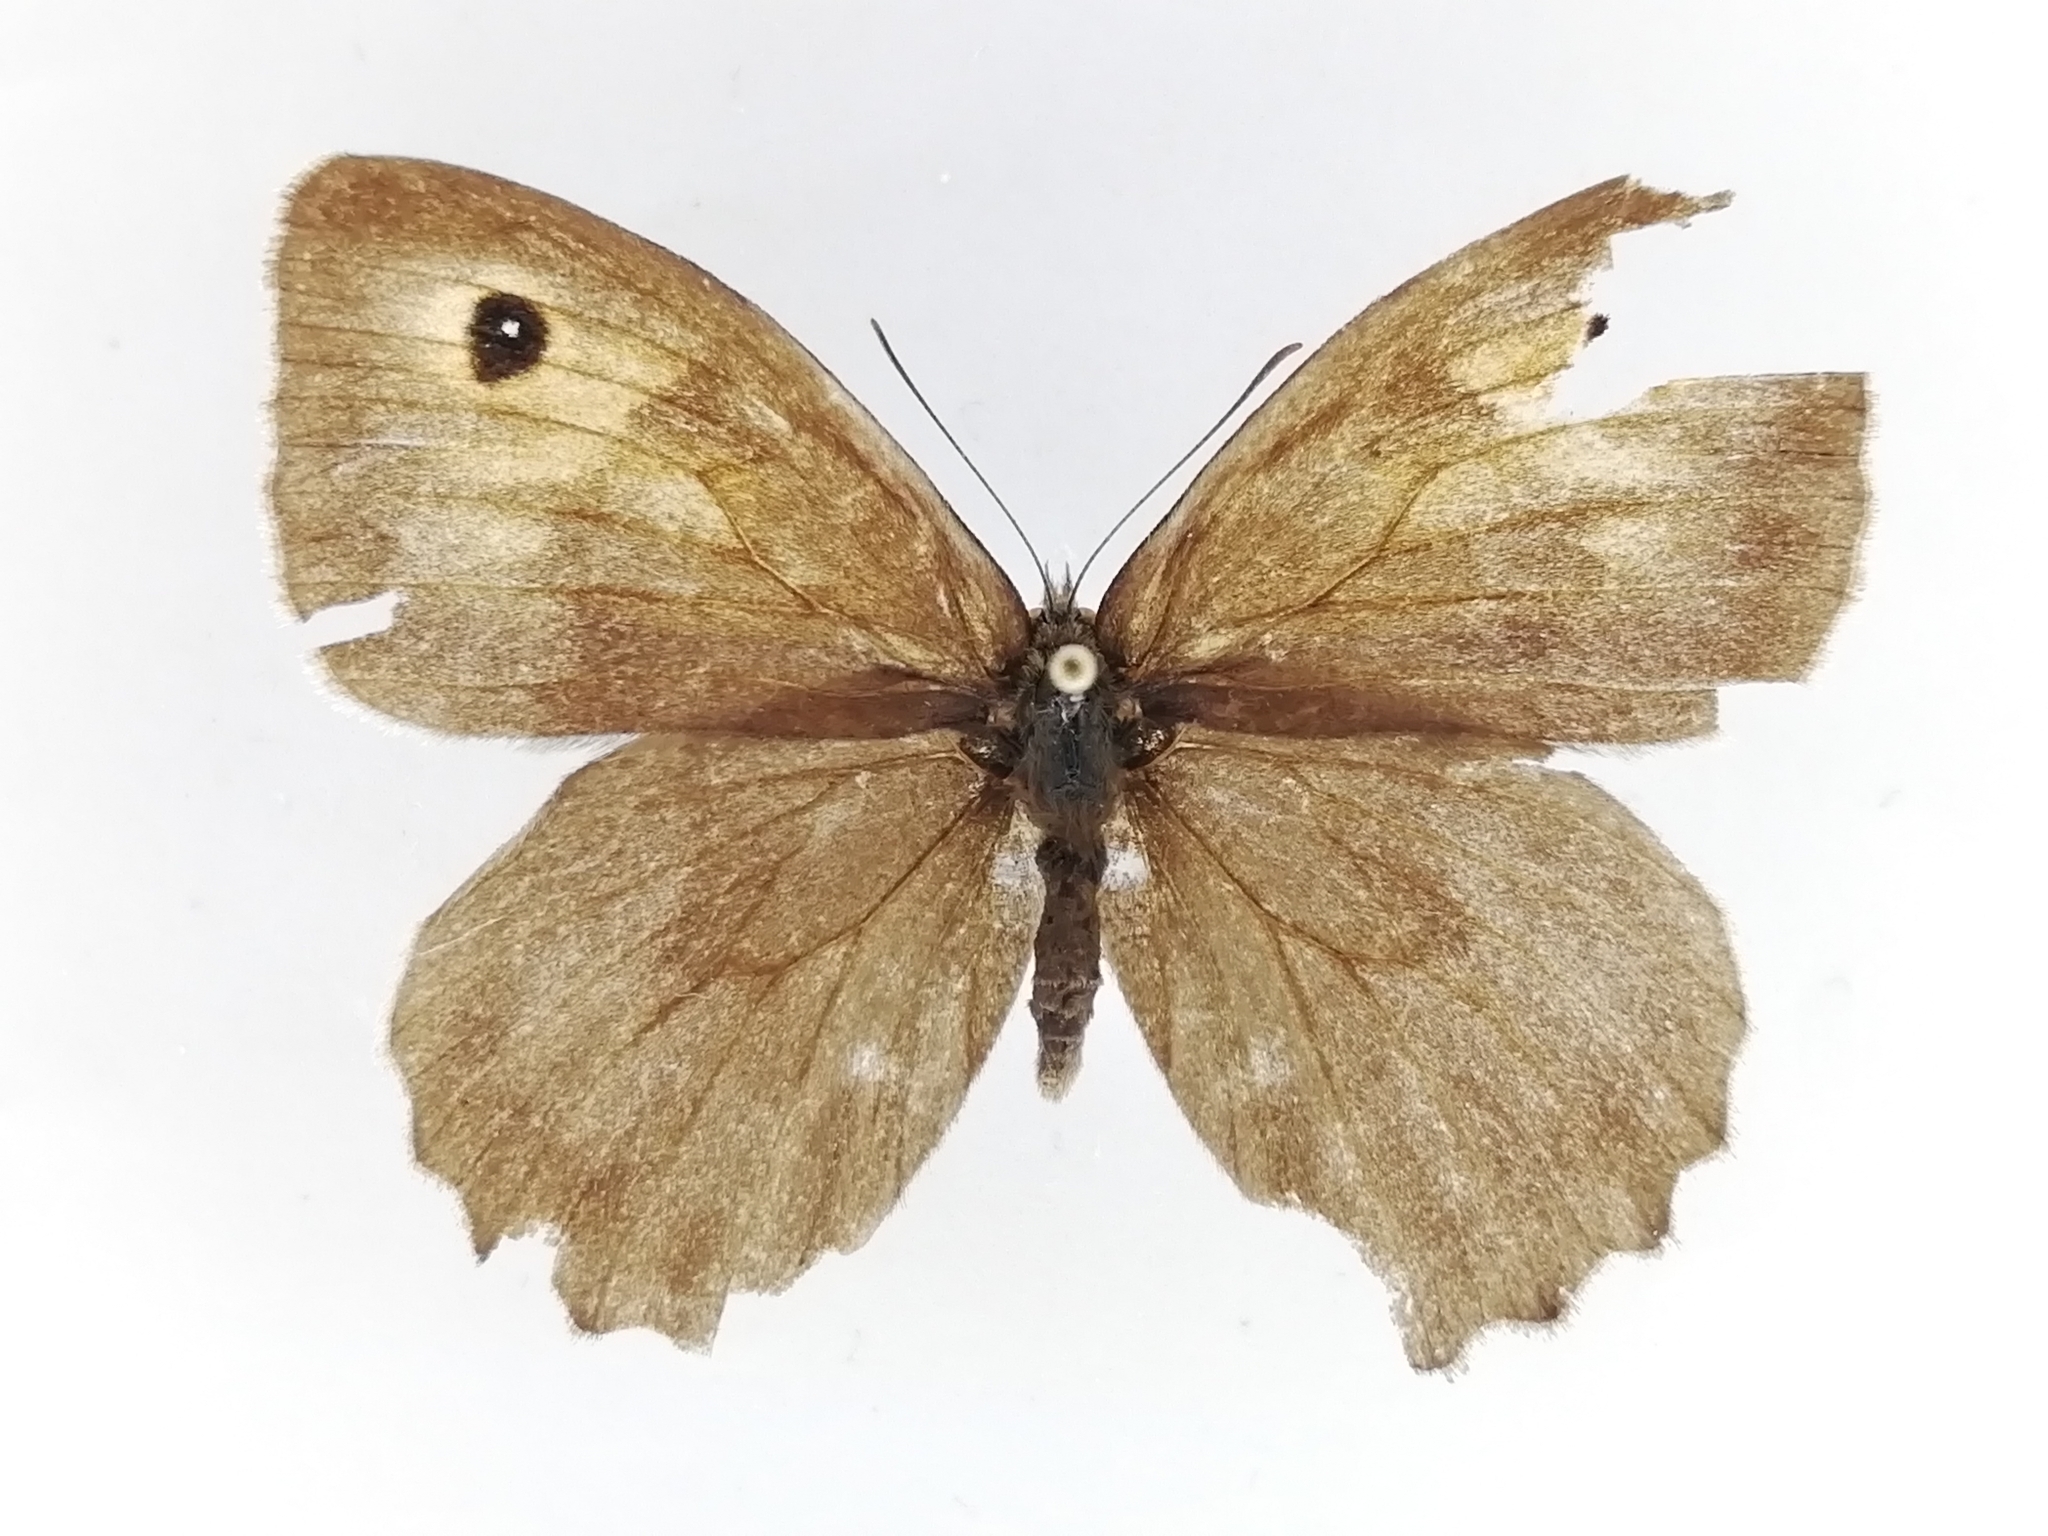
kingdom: Animalia
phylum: Arthropoda
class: Insecta
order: Lepidoptera
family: Nymphalidae
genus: Maniola
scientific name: Maniola jurtina
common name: Meadow brown
